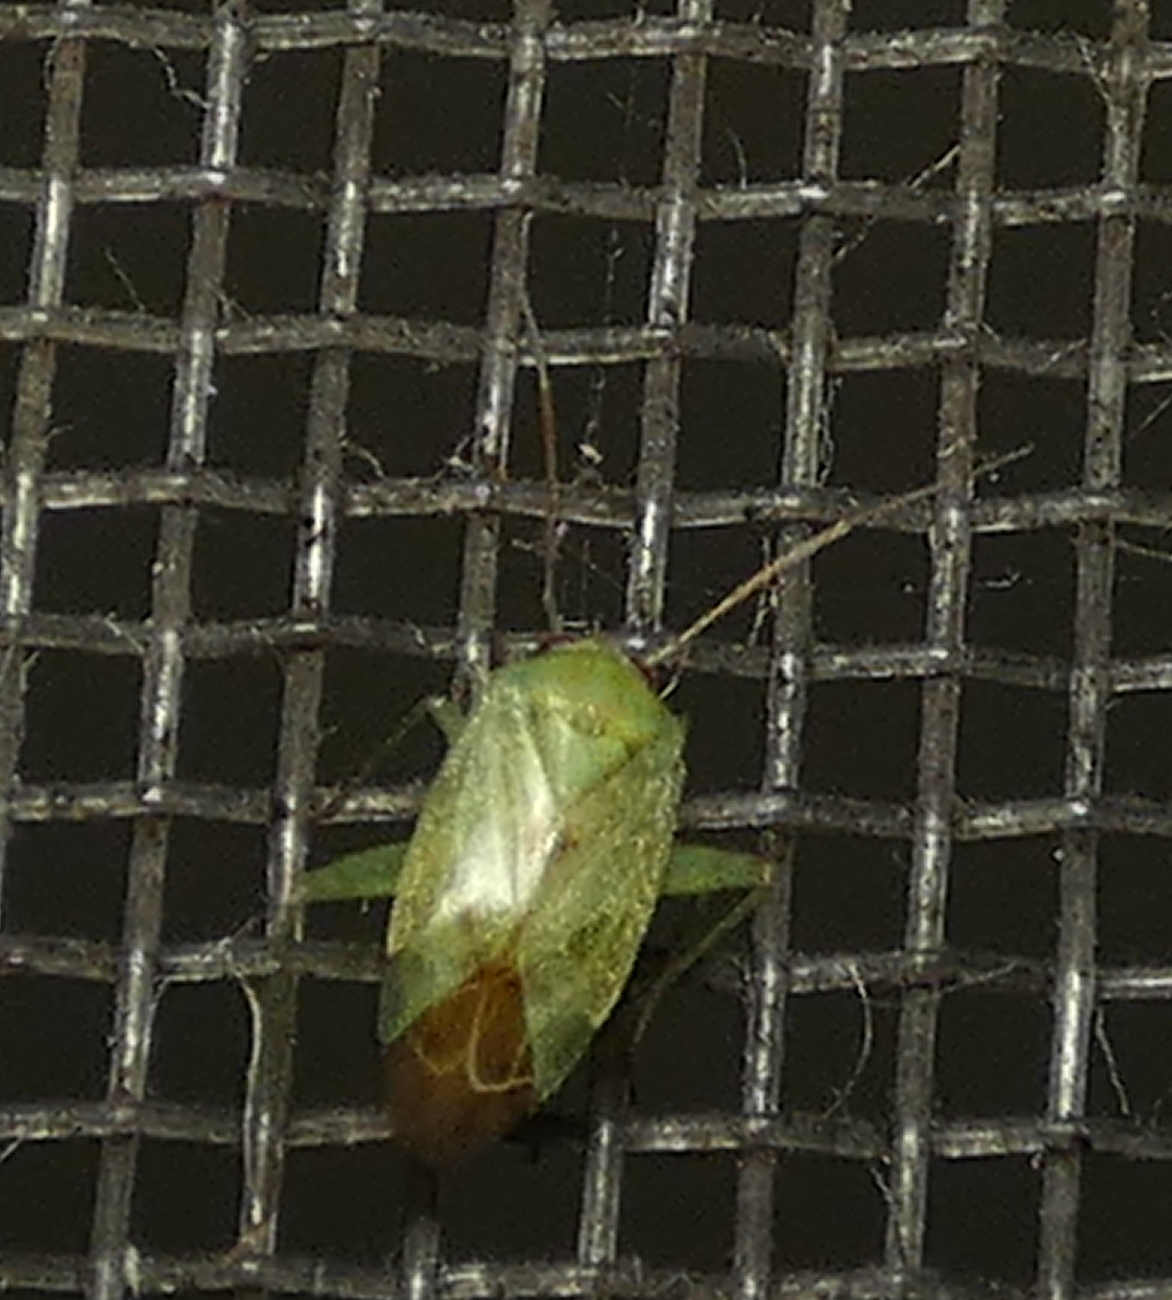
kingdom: Animalia
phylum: Arthropoda
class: Insecta
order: Hemiptera
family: Miridae
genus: Taylorilygus
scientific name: Taylorilygus apicalis
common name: Plant bug
